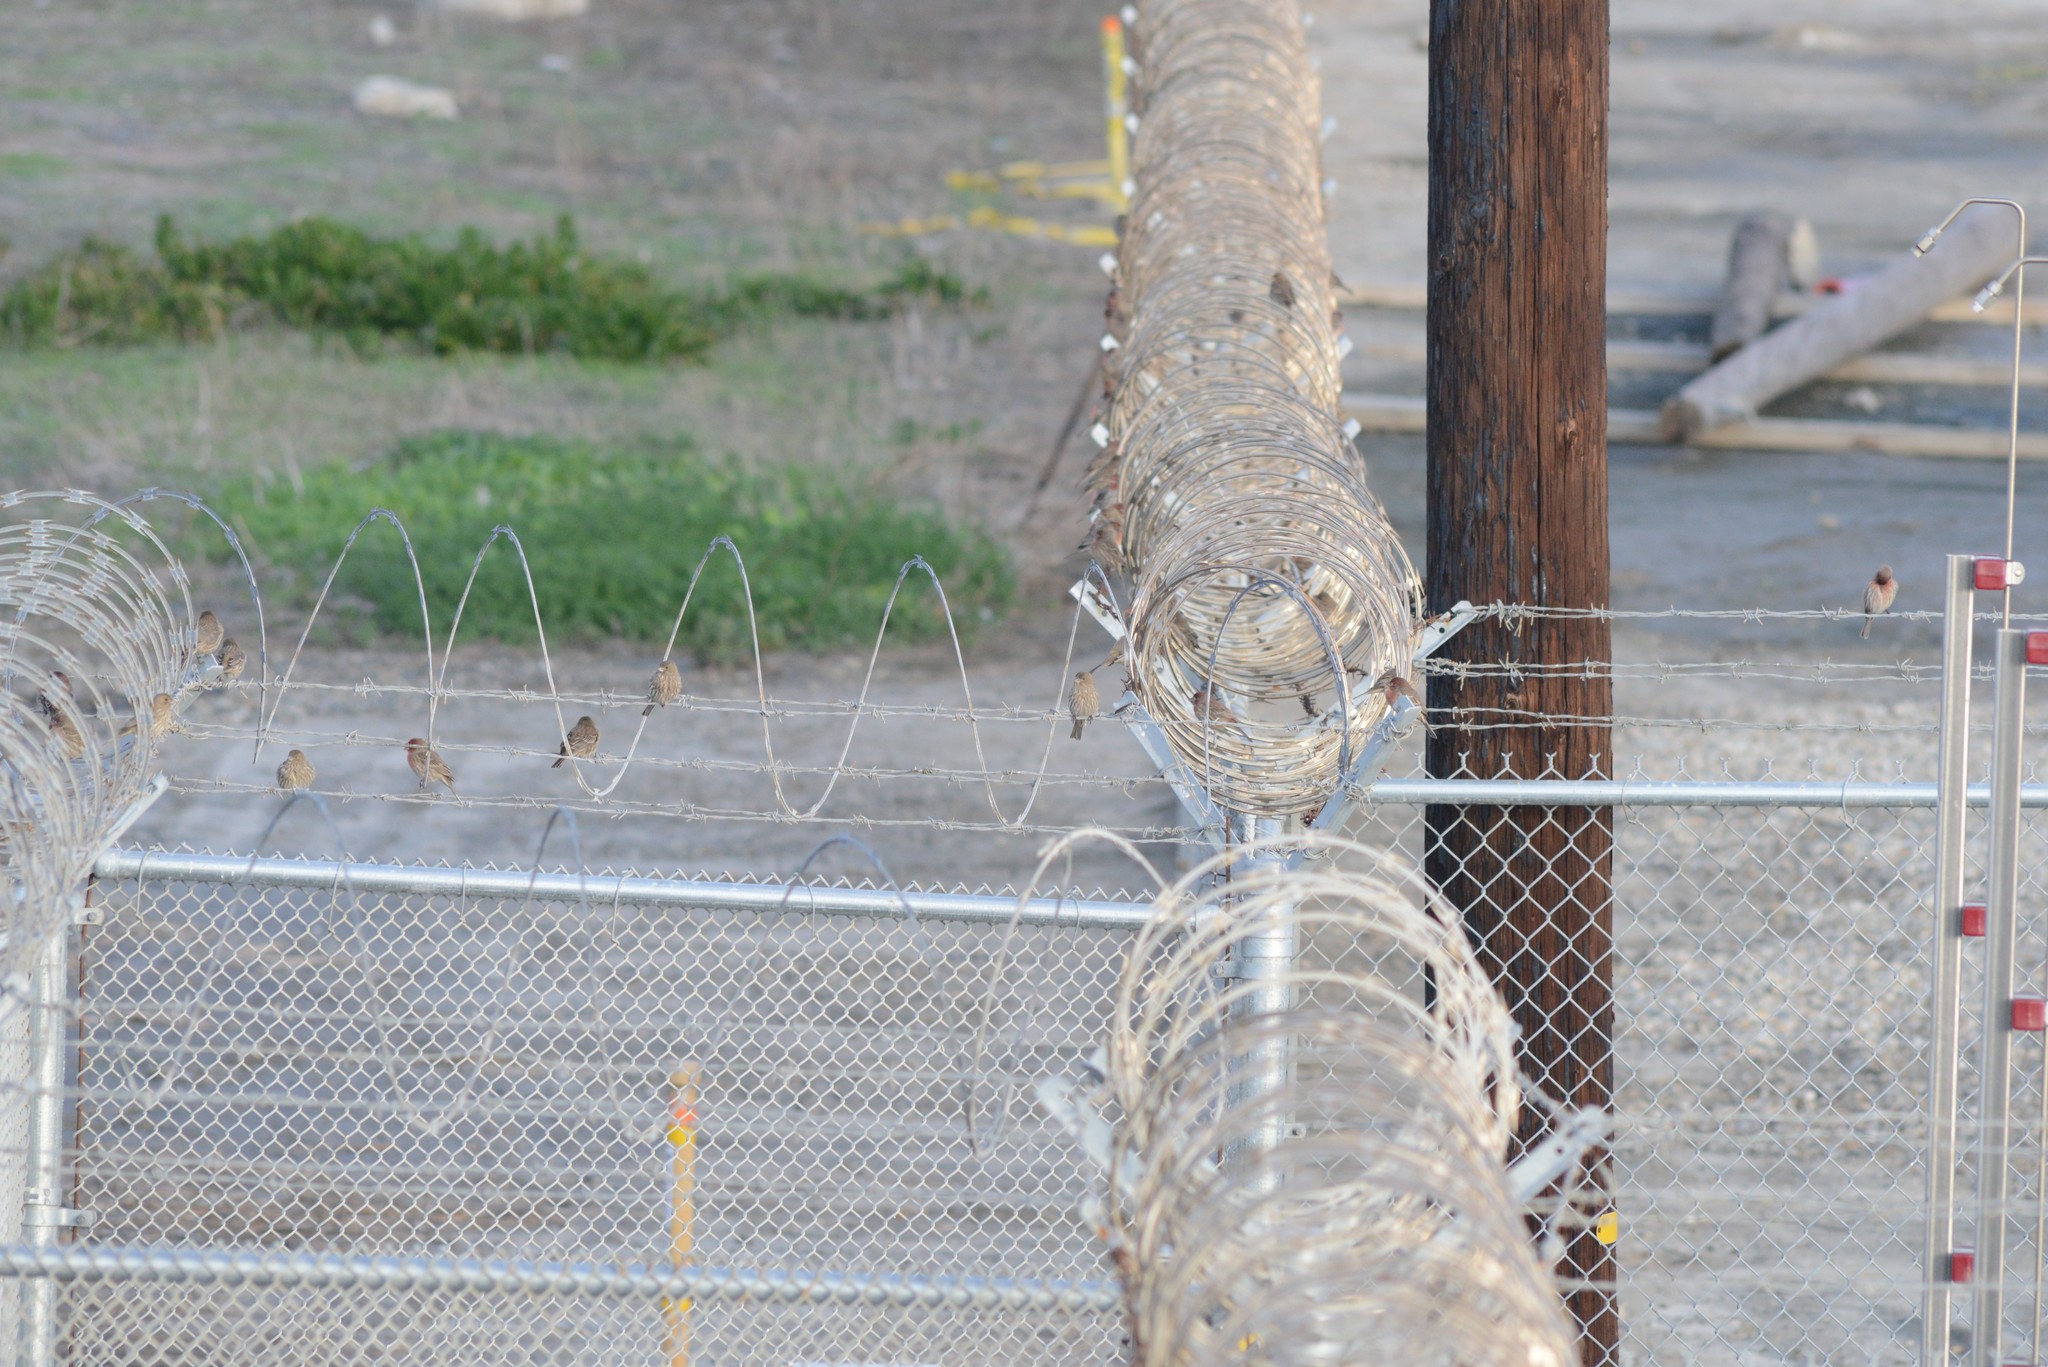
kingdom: Animalia
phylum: Chordata
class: Aves
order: Passeriformes
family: Fringillidae
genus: Haemorhous
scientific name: Haemorhous mexicanus
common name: House finch
